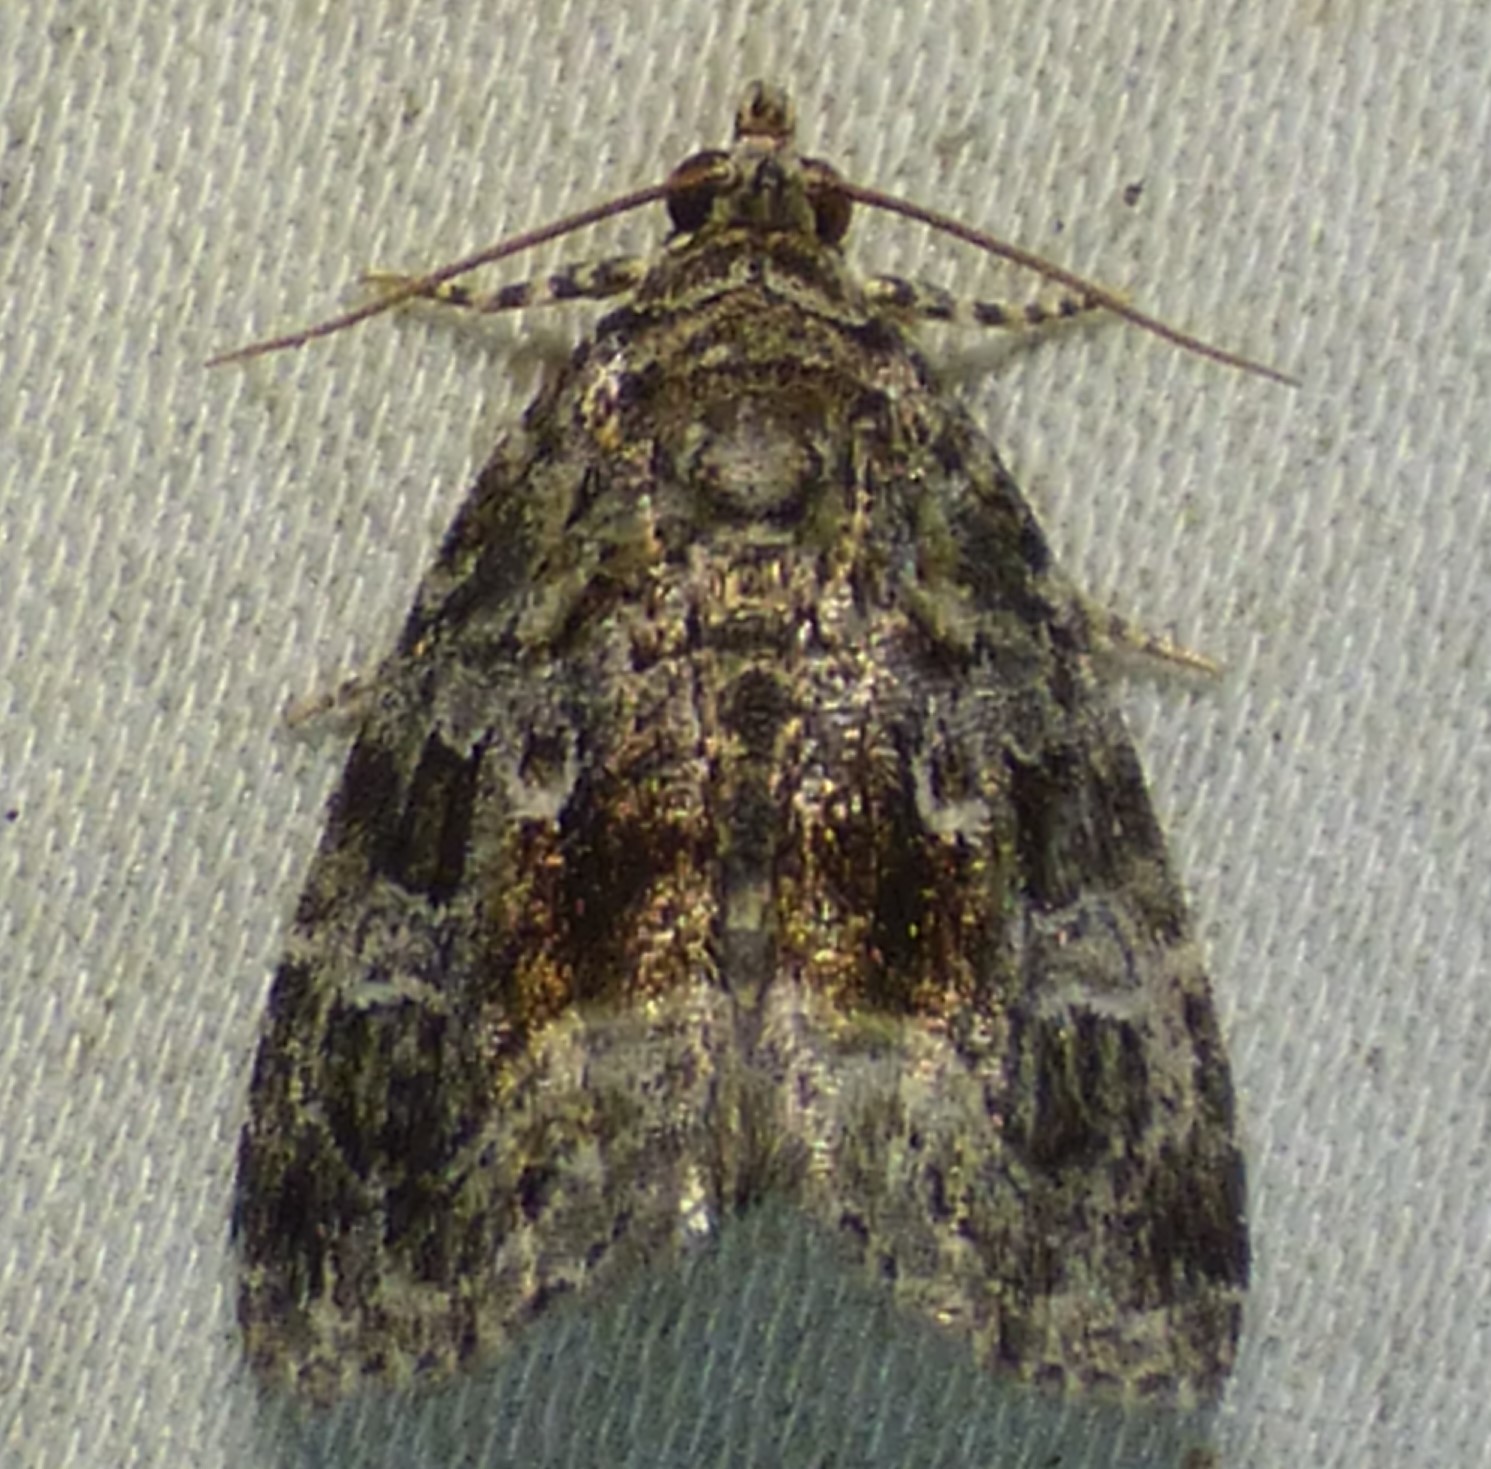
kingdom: Animalia
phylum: Arthropoda
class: Insecta
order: Lepidoptera
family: Noctuidae
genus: Protodeltote
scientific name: Protodeltote muscosula
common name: Large mossy glyph
